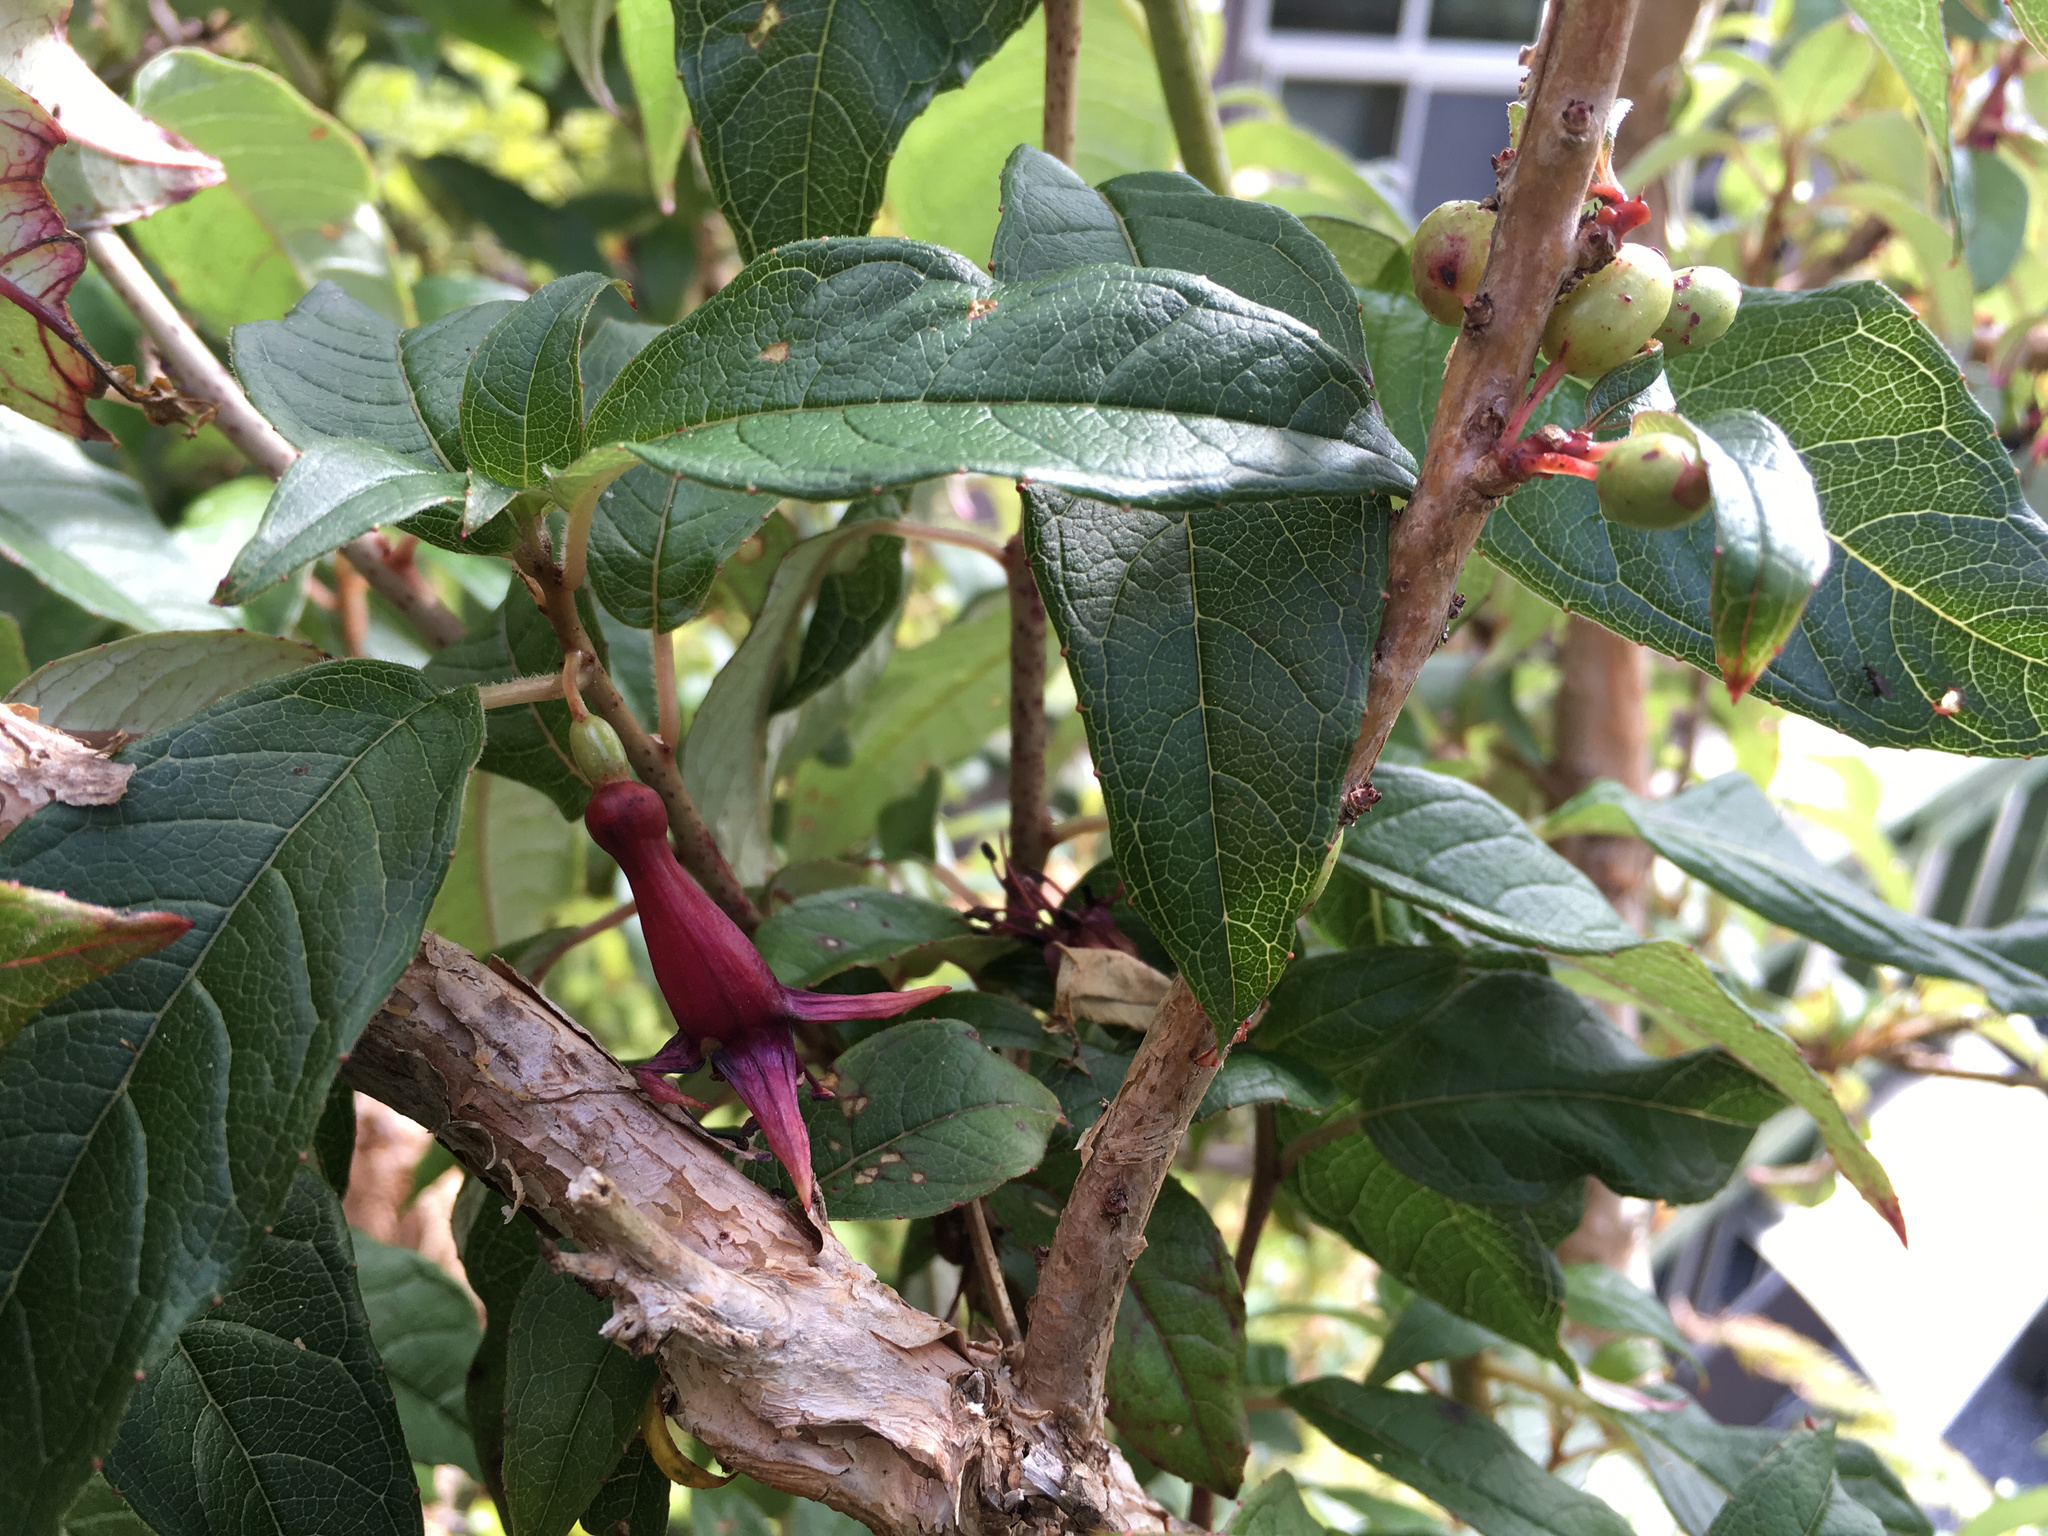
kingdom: Plantae
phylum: Tracheophyta
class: Magnoliopsida
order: Myrtales
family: Onagraceae
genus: Fuchsia
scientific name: Fuchsia excorticata
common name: Tree fuchsia
